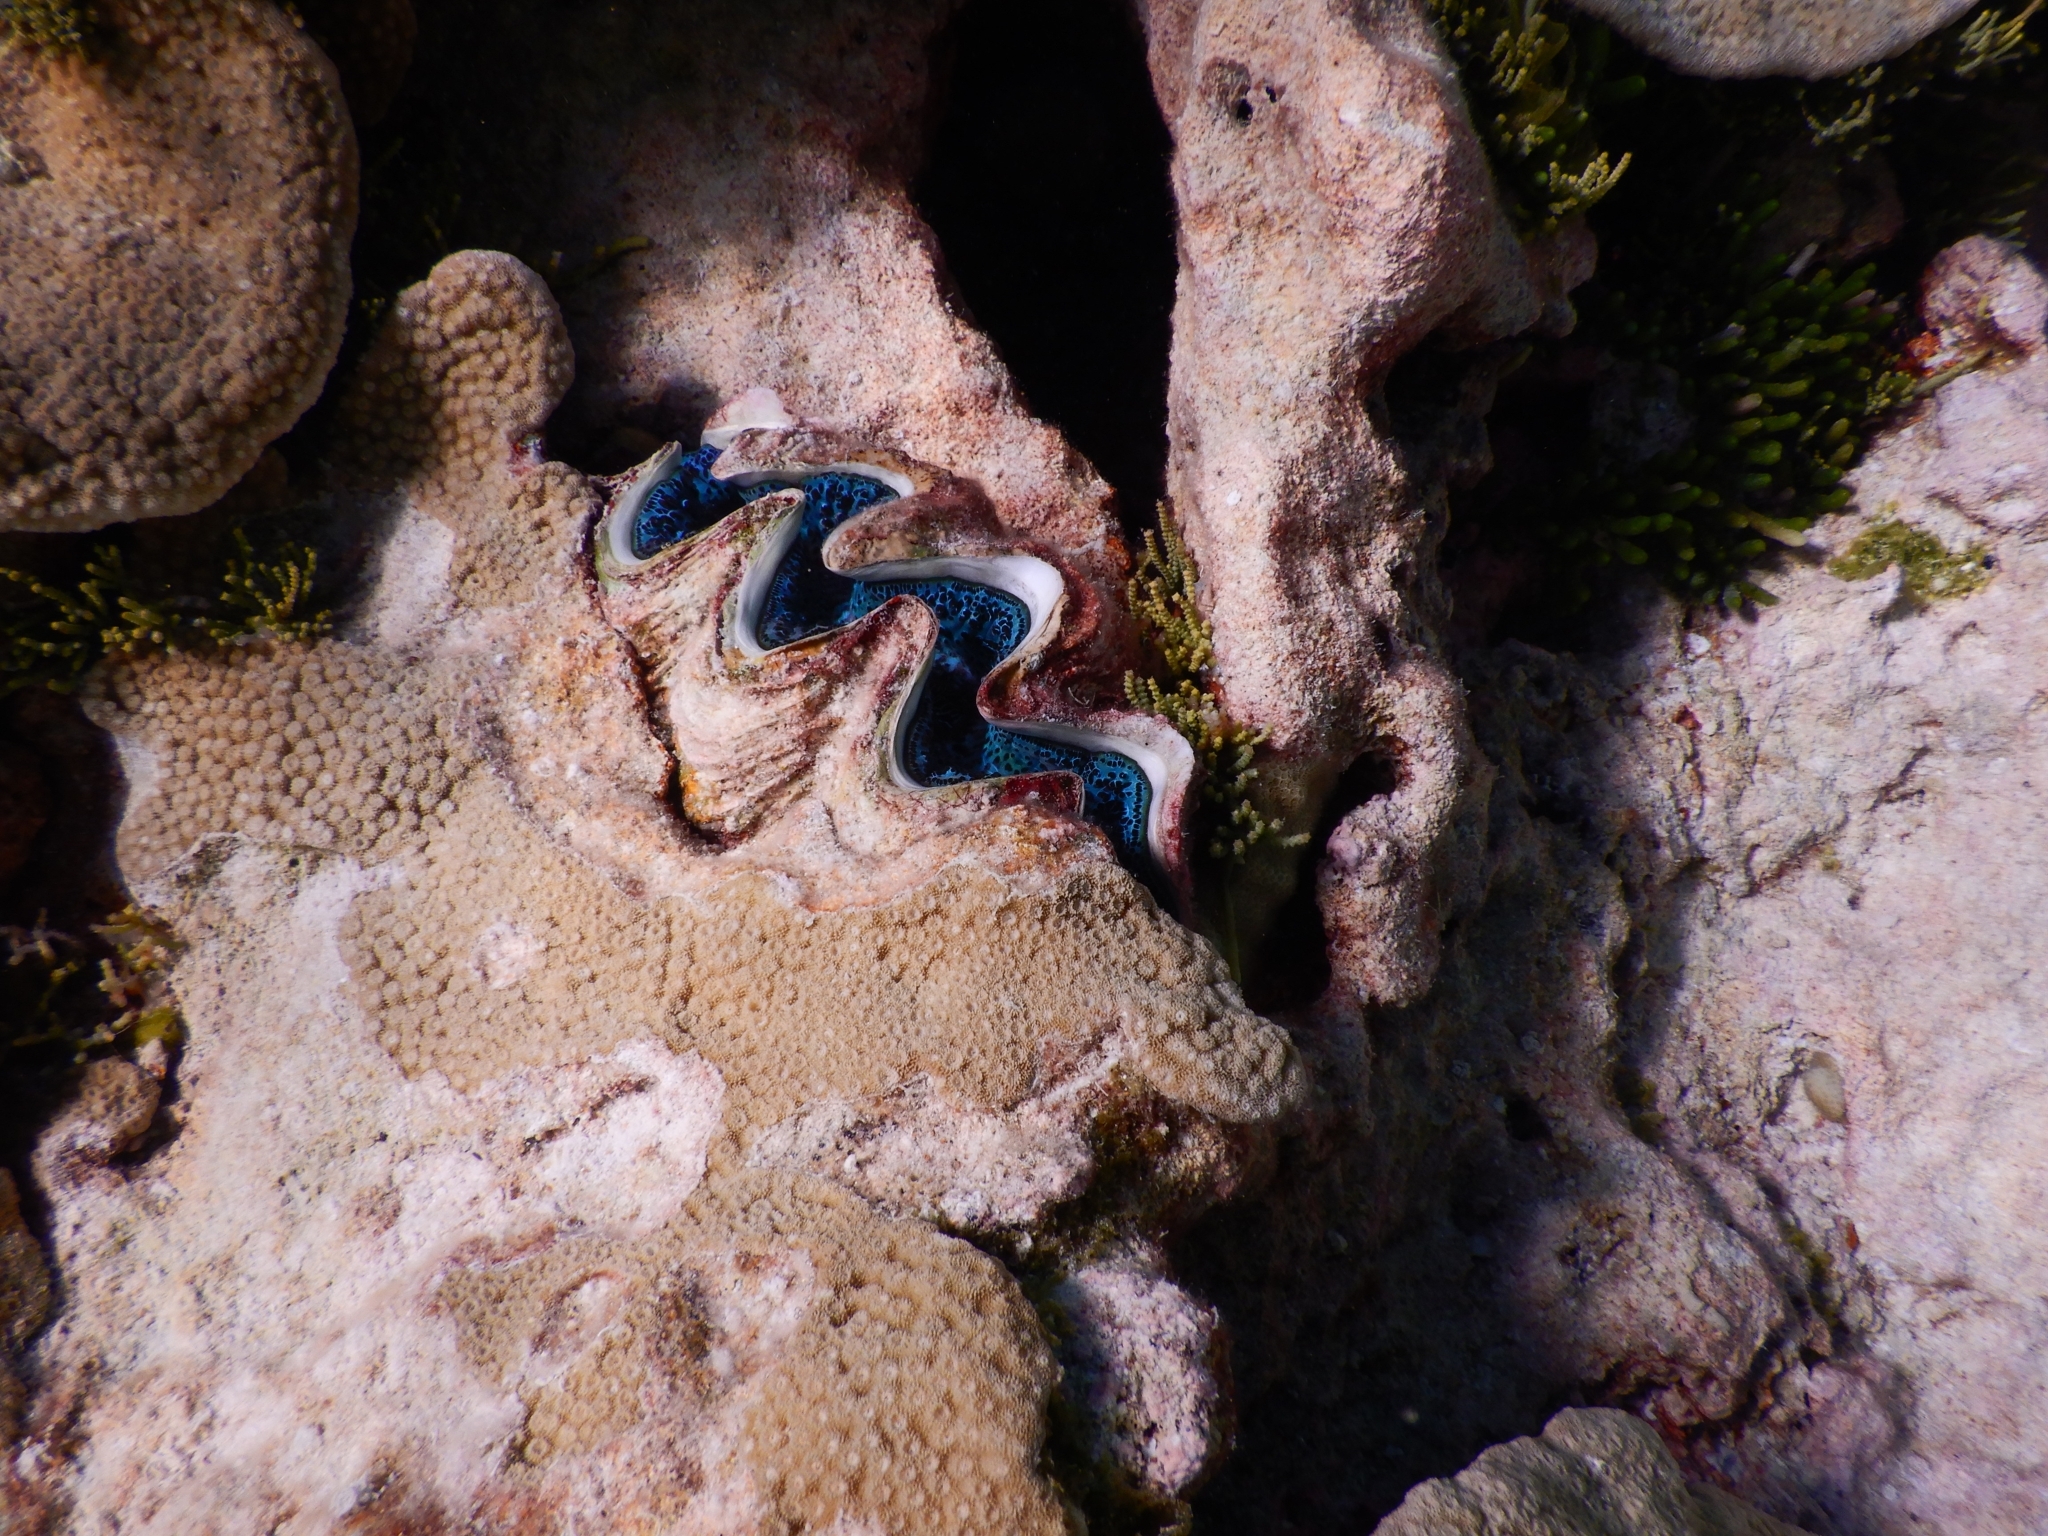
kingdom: Animalia
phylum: Mollusca
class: Bivalvia
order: Cardiida
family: Cardiidae
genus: Tridacna
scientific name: Tridacna maxima
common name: Small giant clam
